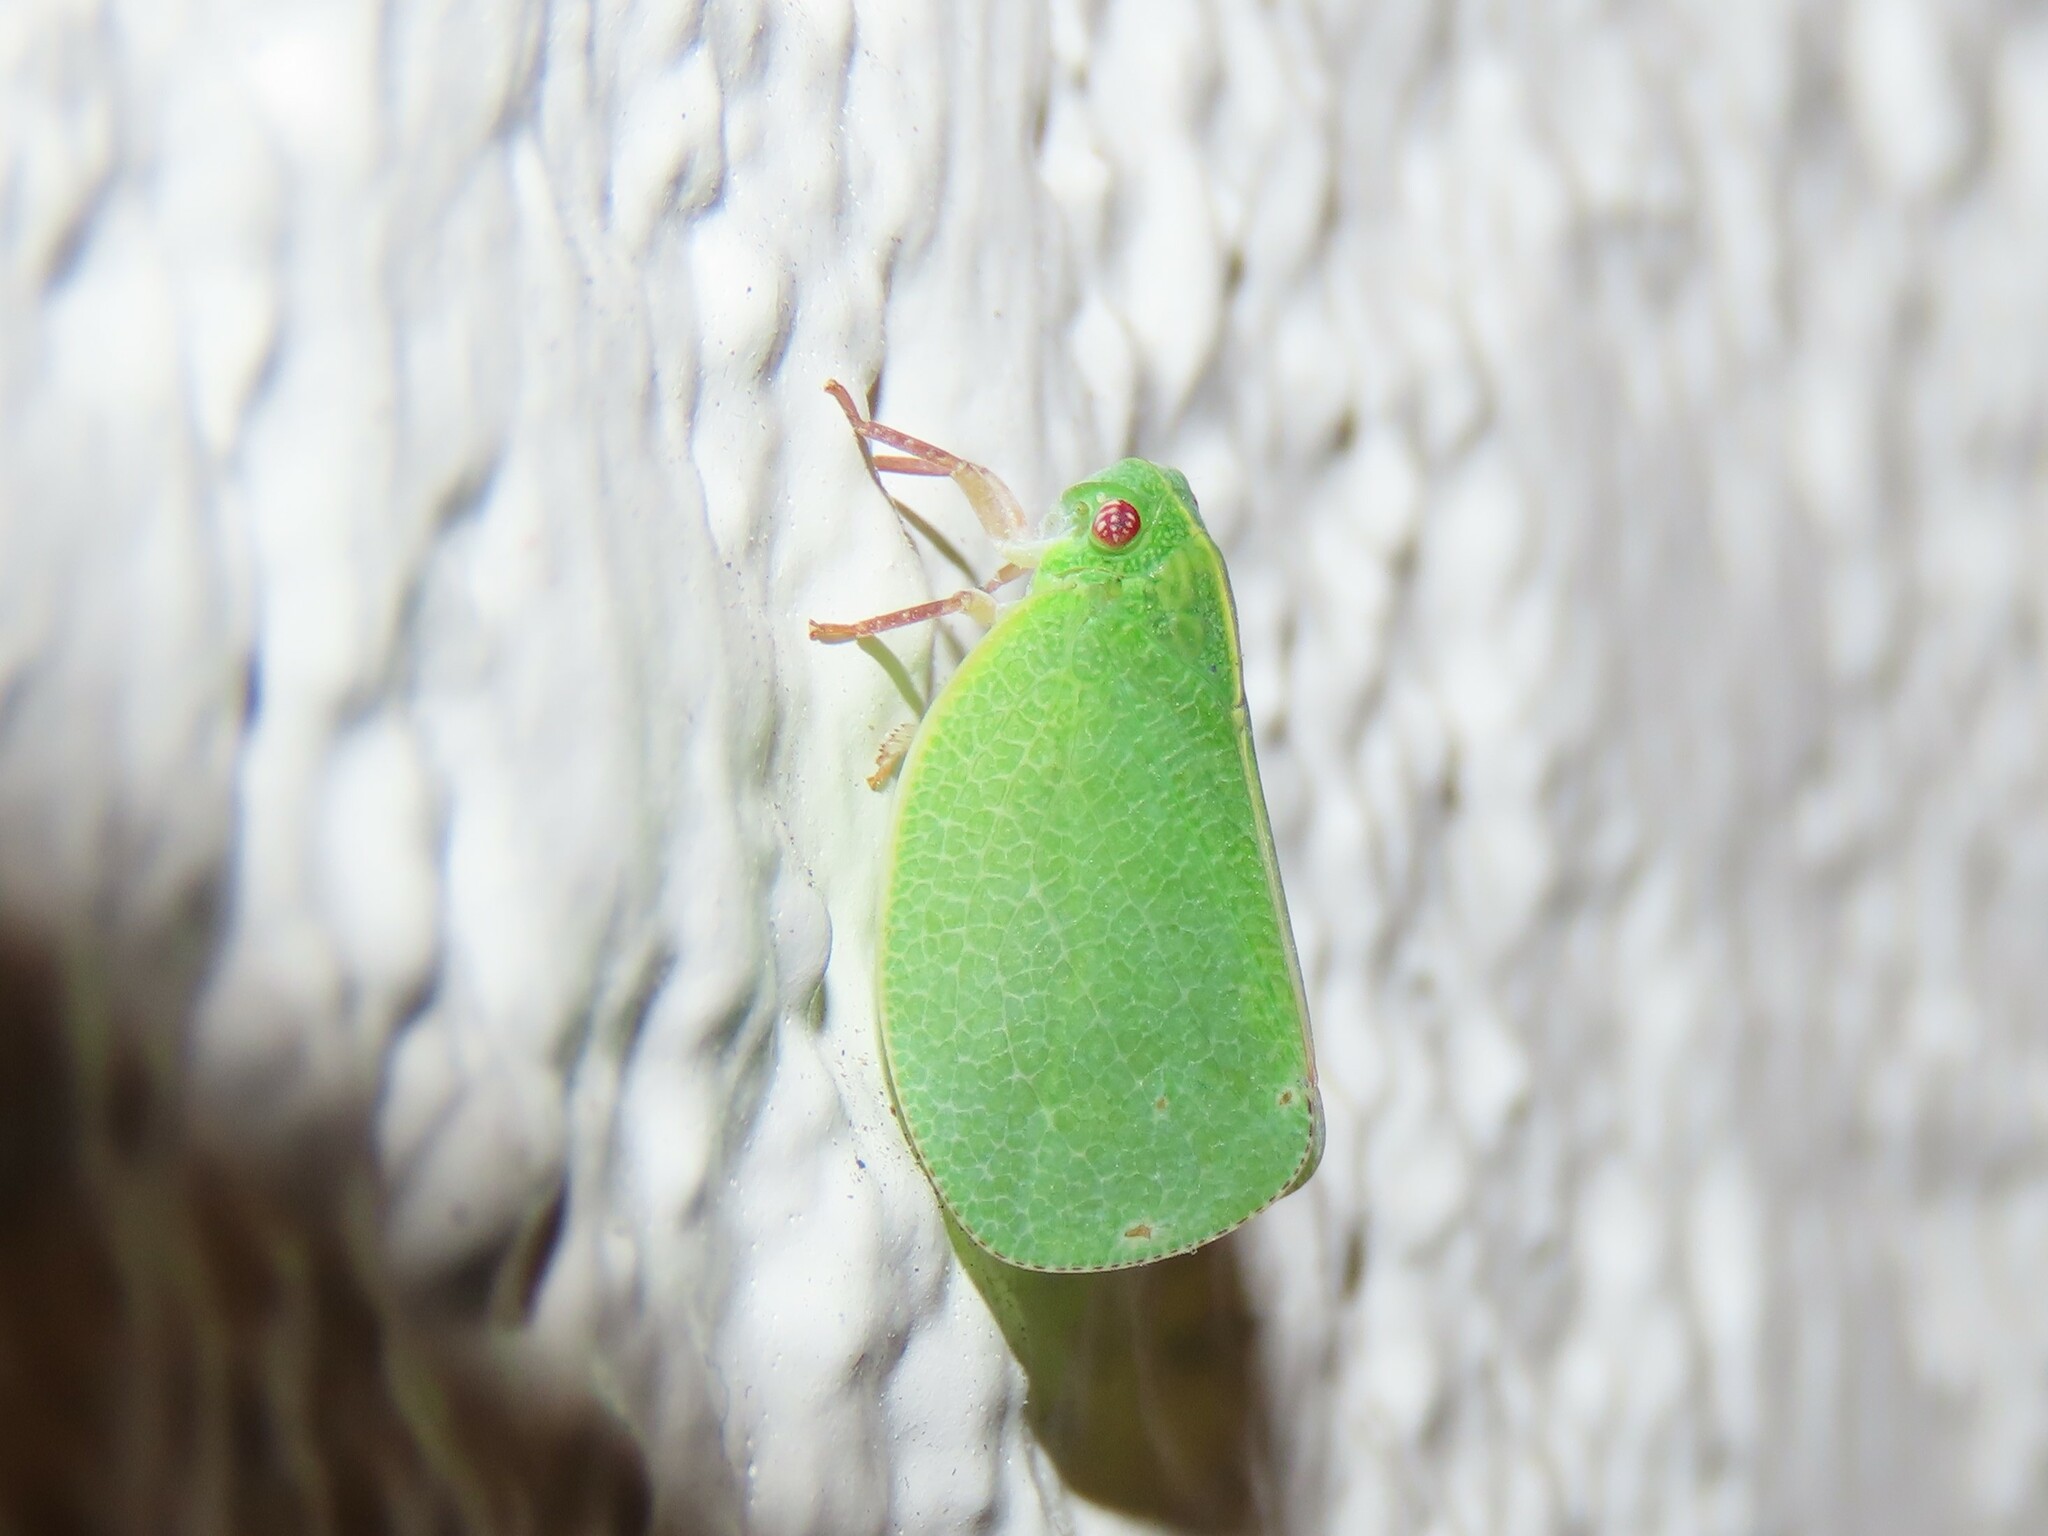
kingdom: Animalia
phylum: Arthropoda
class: Insecta
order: Hemiptera
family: Acanaloniidae
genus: Acanalonia
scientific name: Acanalonia servillei
